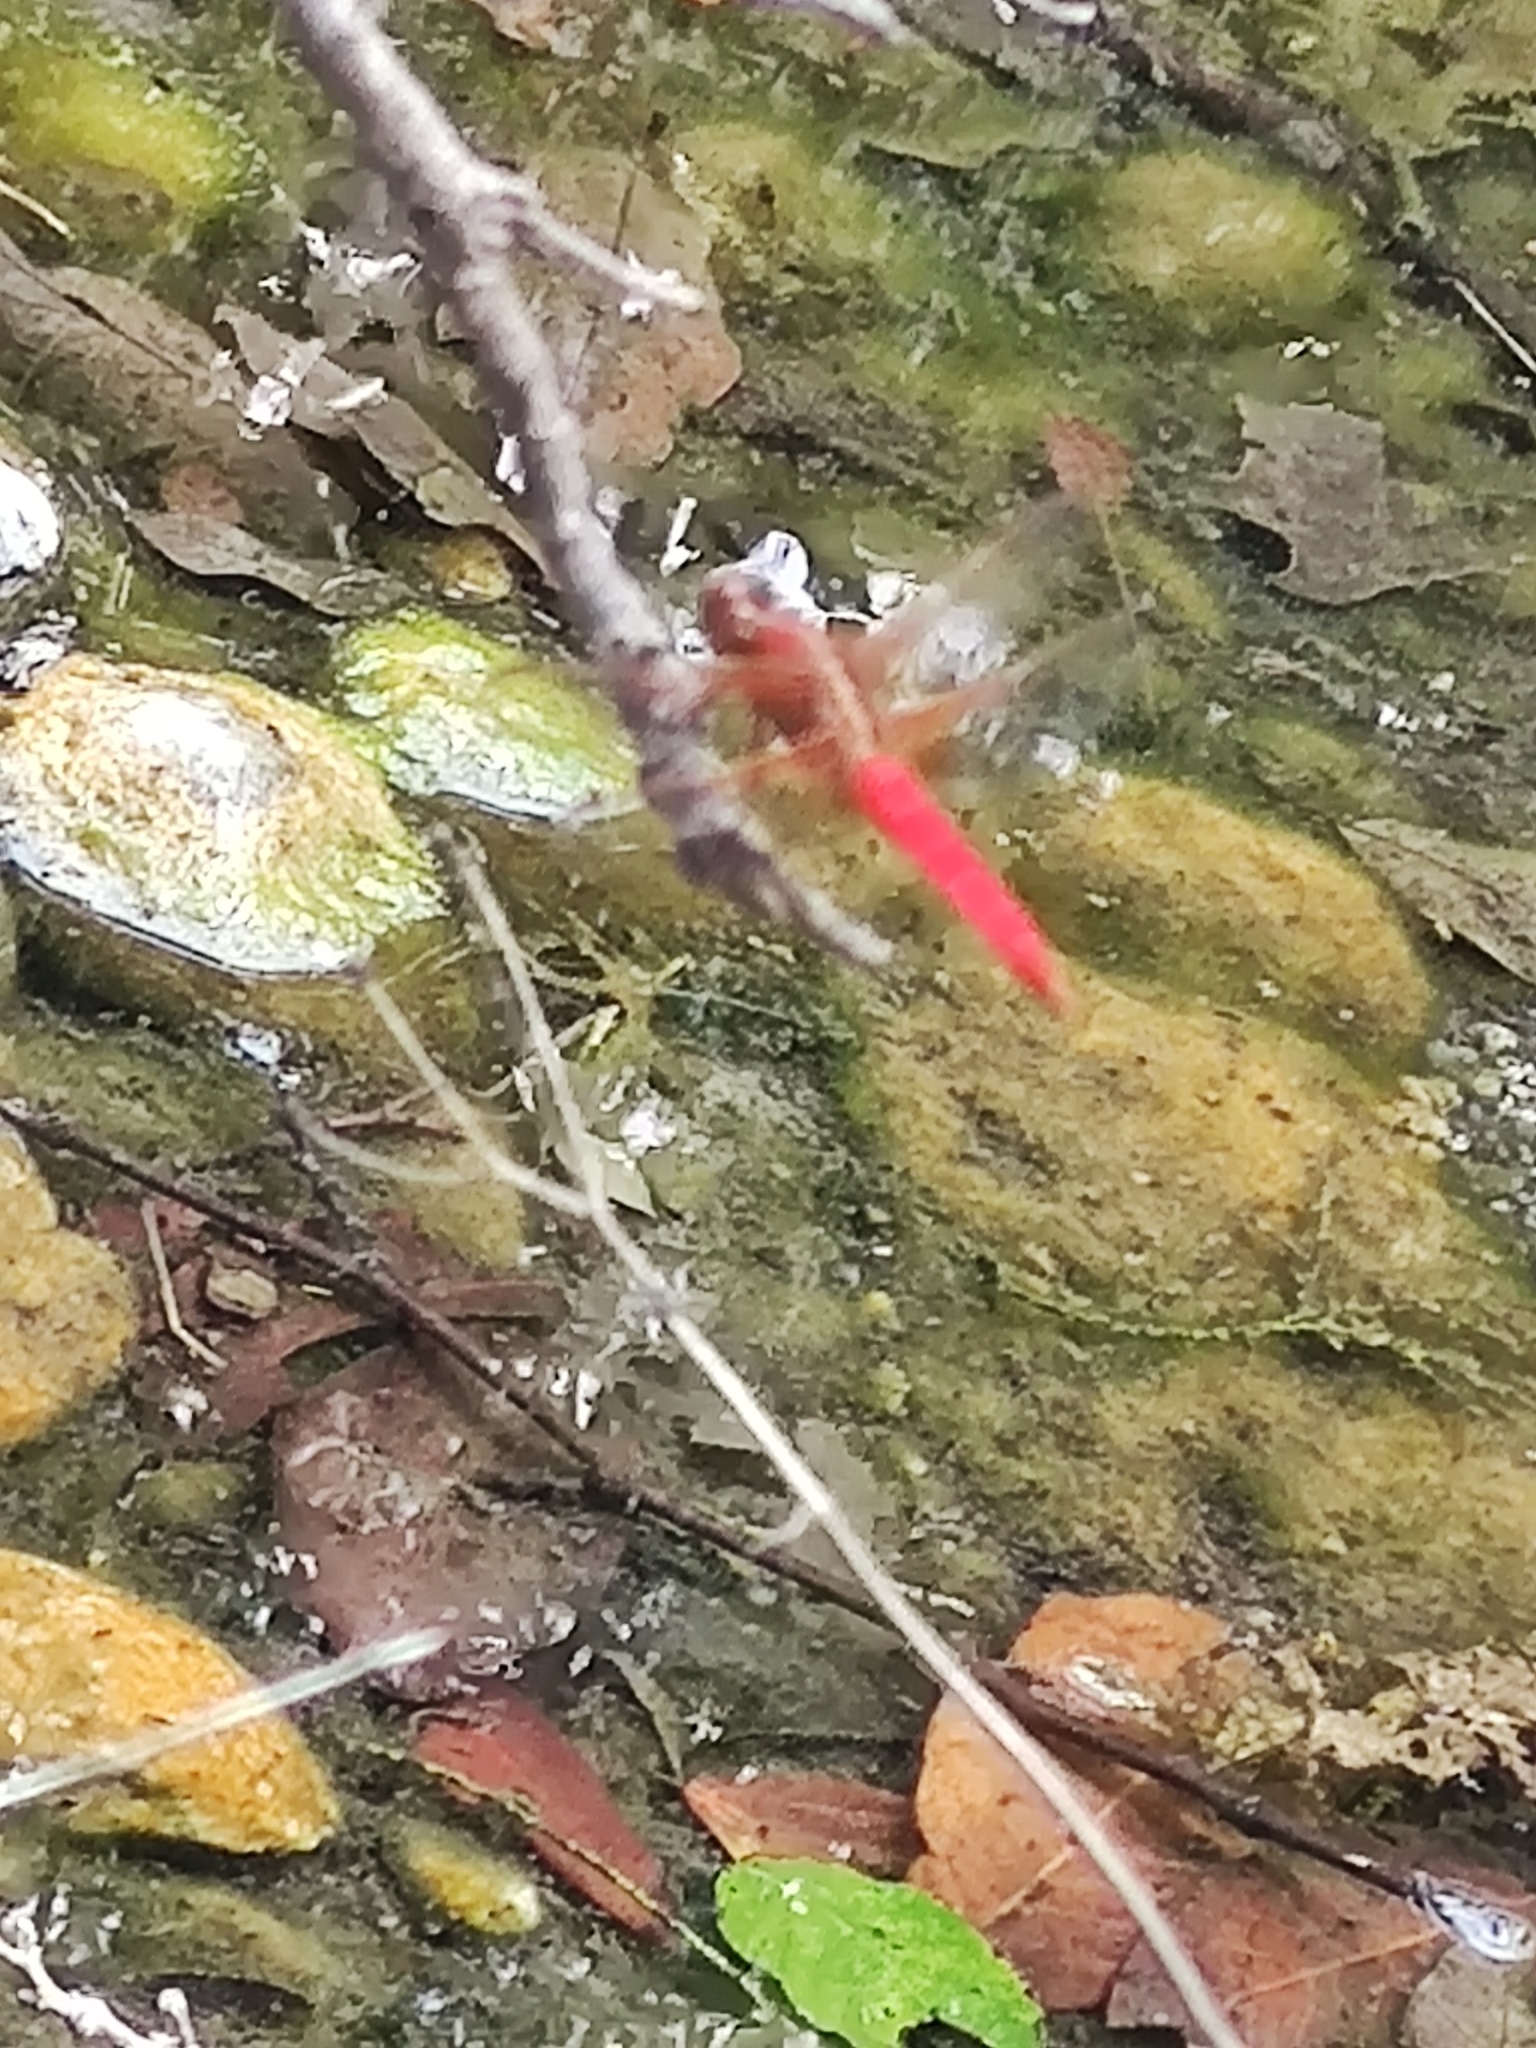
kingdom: Animalia
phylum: Arthropoda
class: Insecta
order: Odonata
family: Libellulidae
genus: Libellula
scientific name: Libellula croceipennis
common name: Neon skimmer
